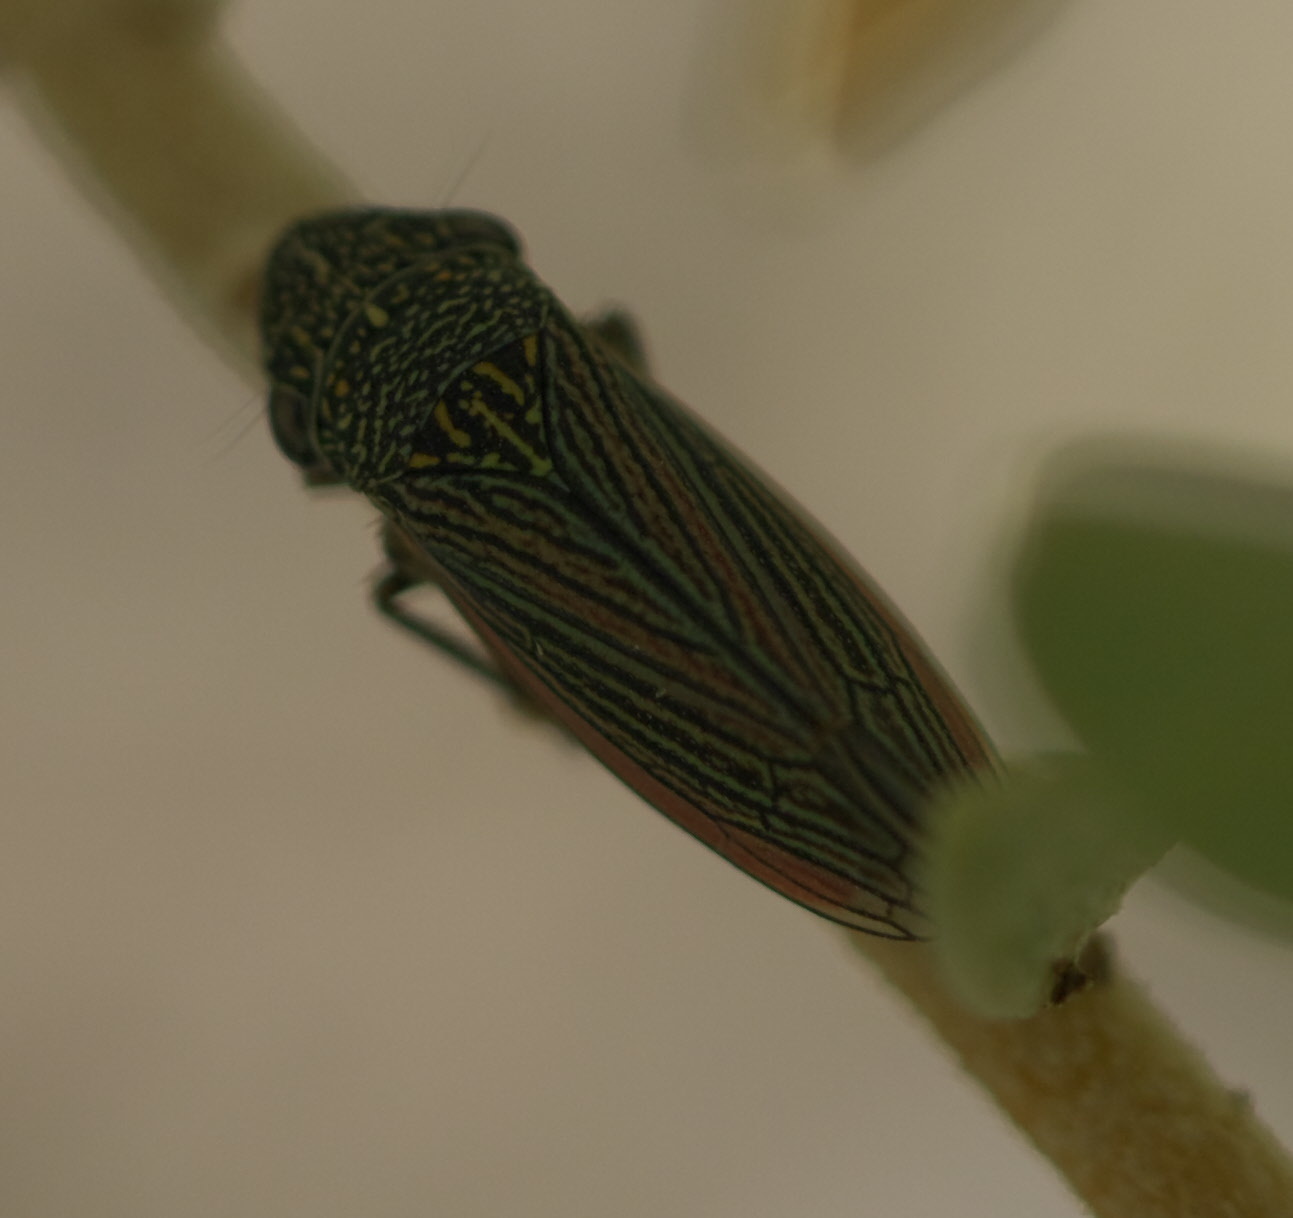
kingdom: Animalia
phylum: Arthropoda
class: Insecta
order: Hemiptera
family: Cicadellidae
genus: Cuerna
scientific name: Cuerna alpina
